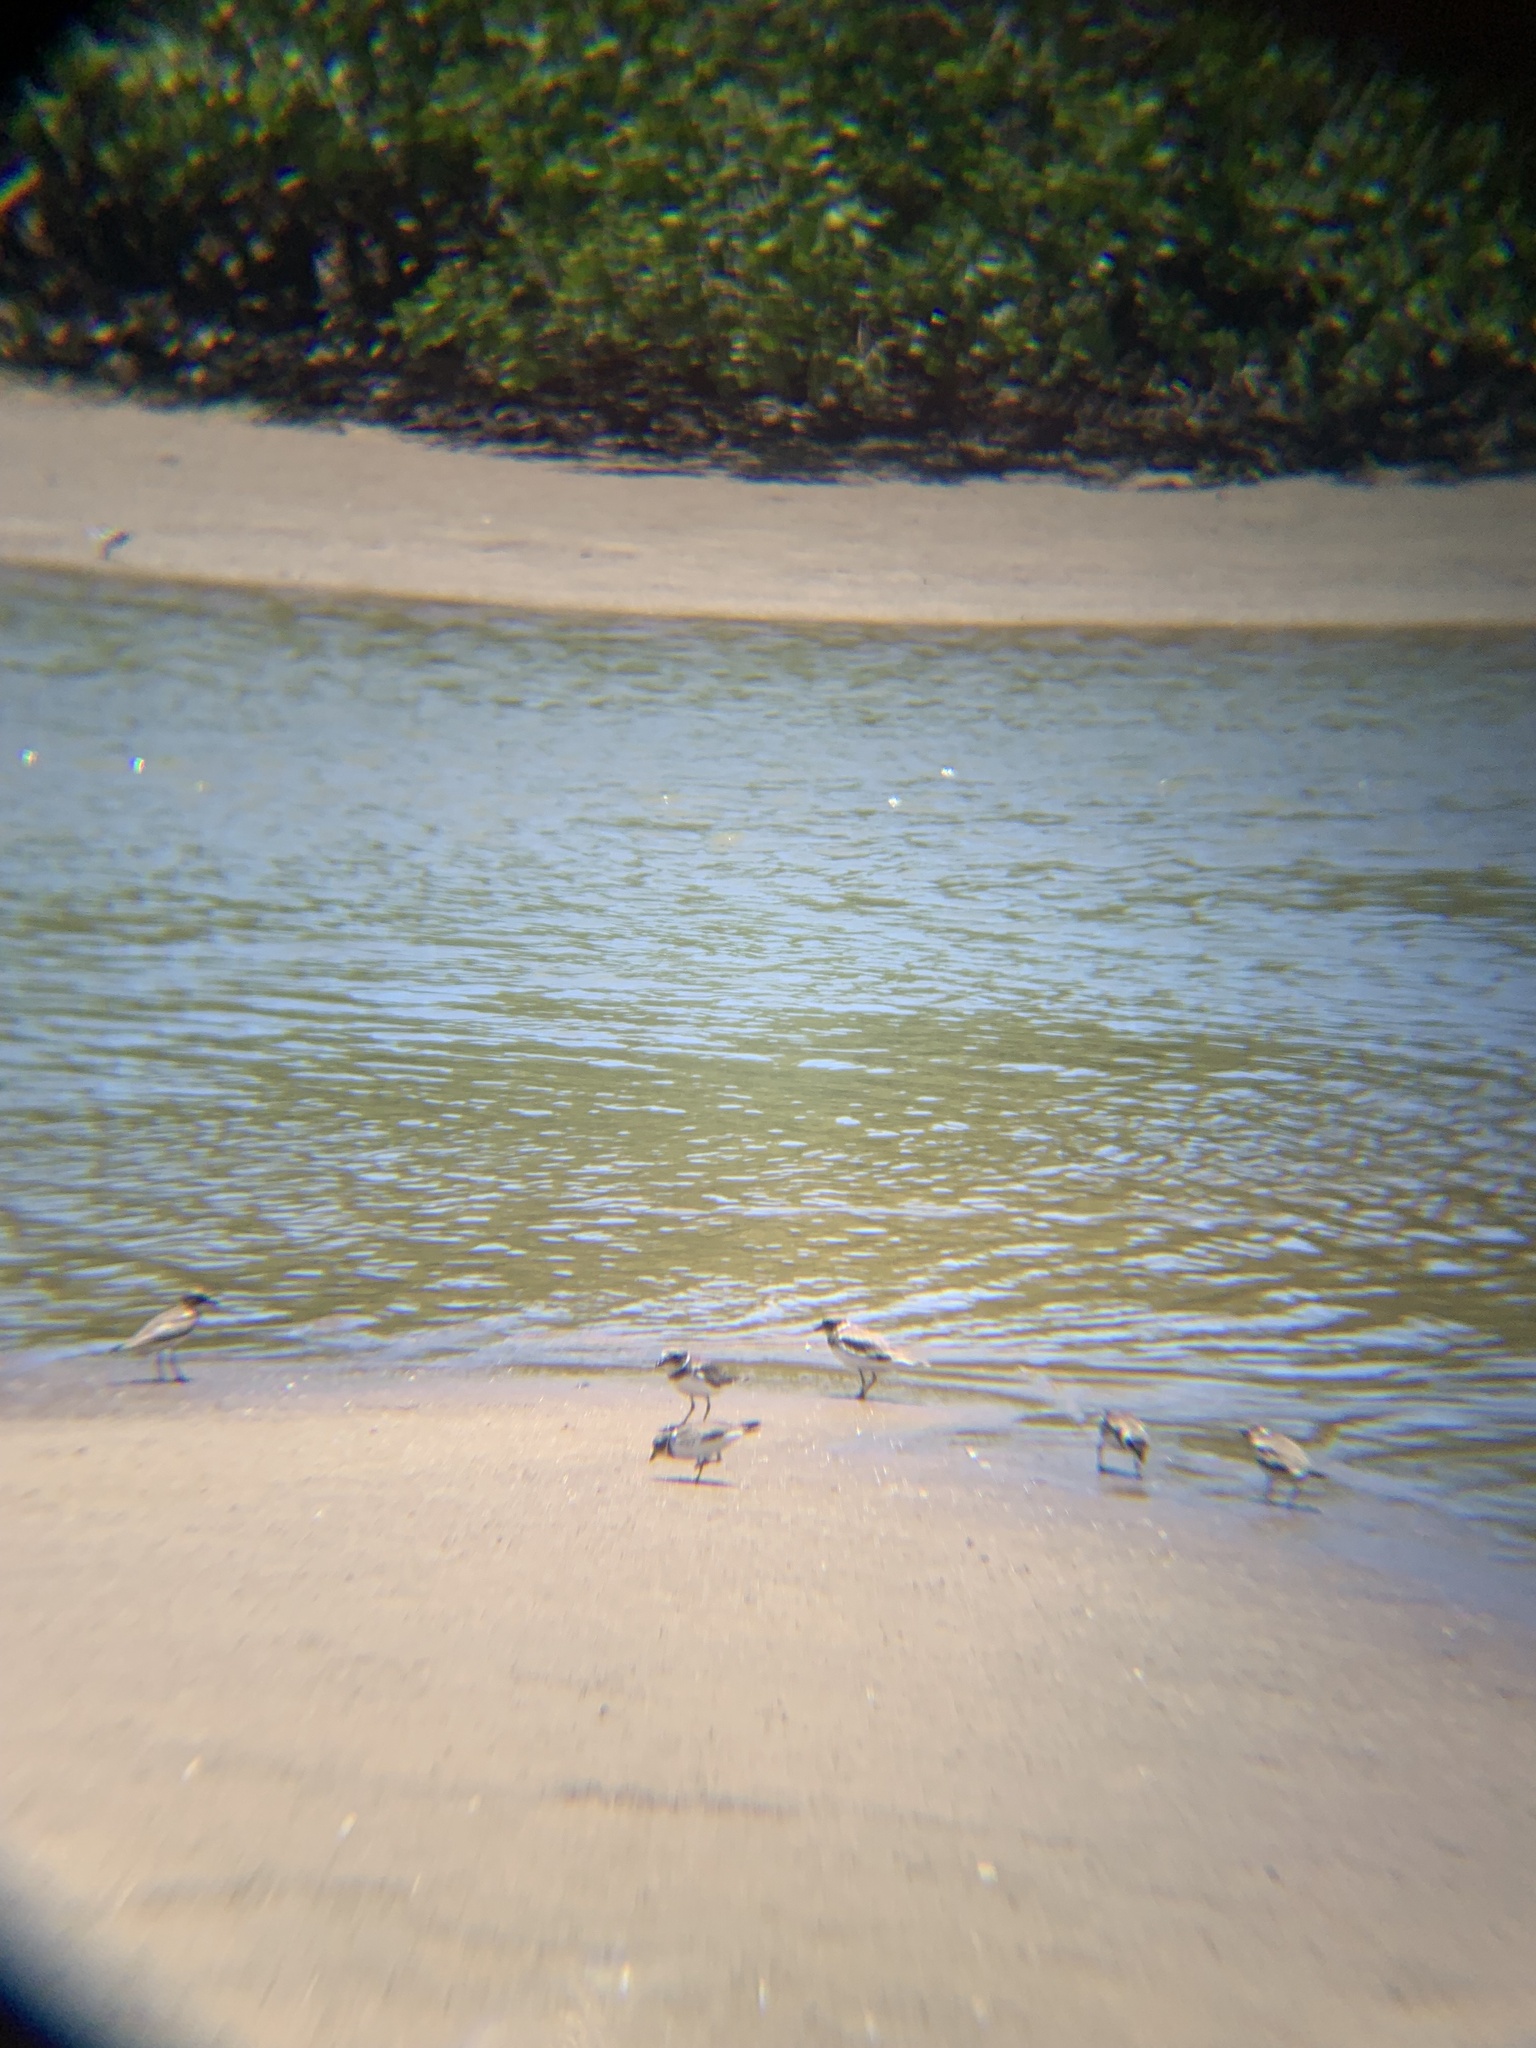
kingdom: Animalia
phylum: Chordata
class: Aves
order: Charadriiformes
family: Charadriidae
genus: Charadrius
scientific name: Charadrius semipalmatus
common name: Semipalmated plover
